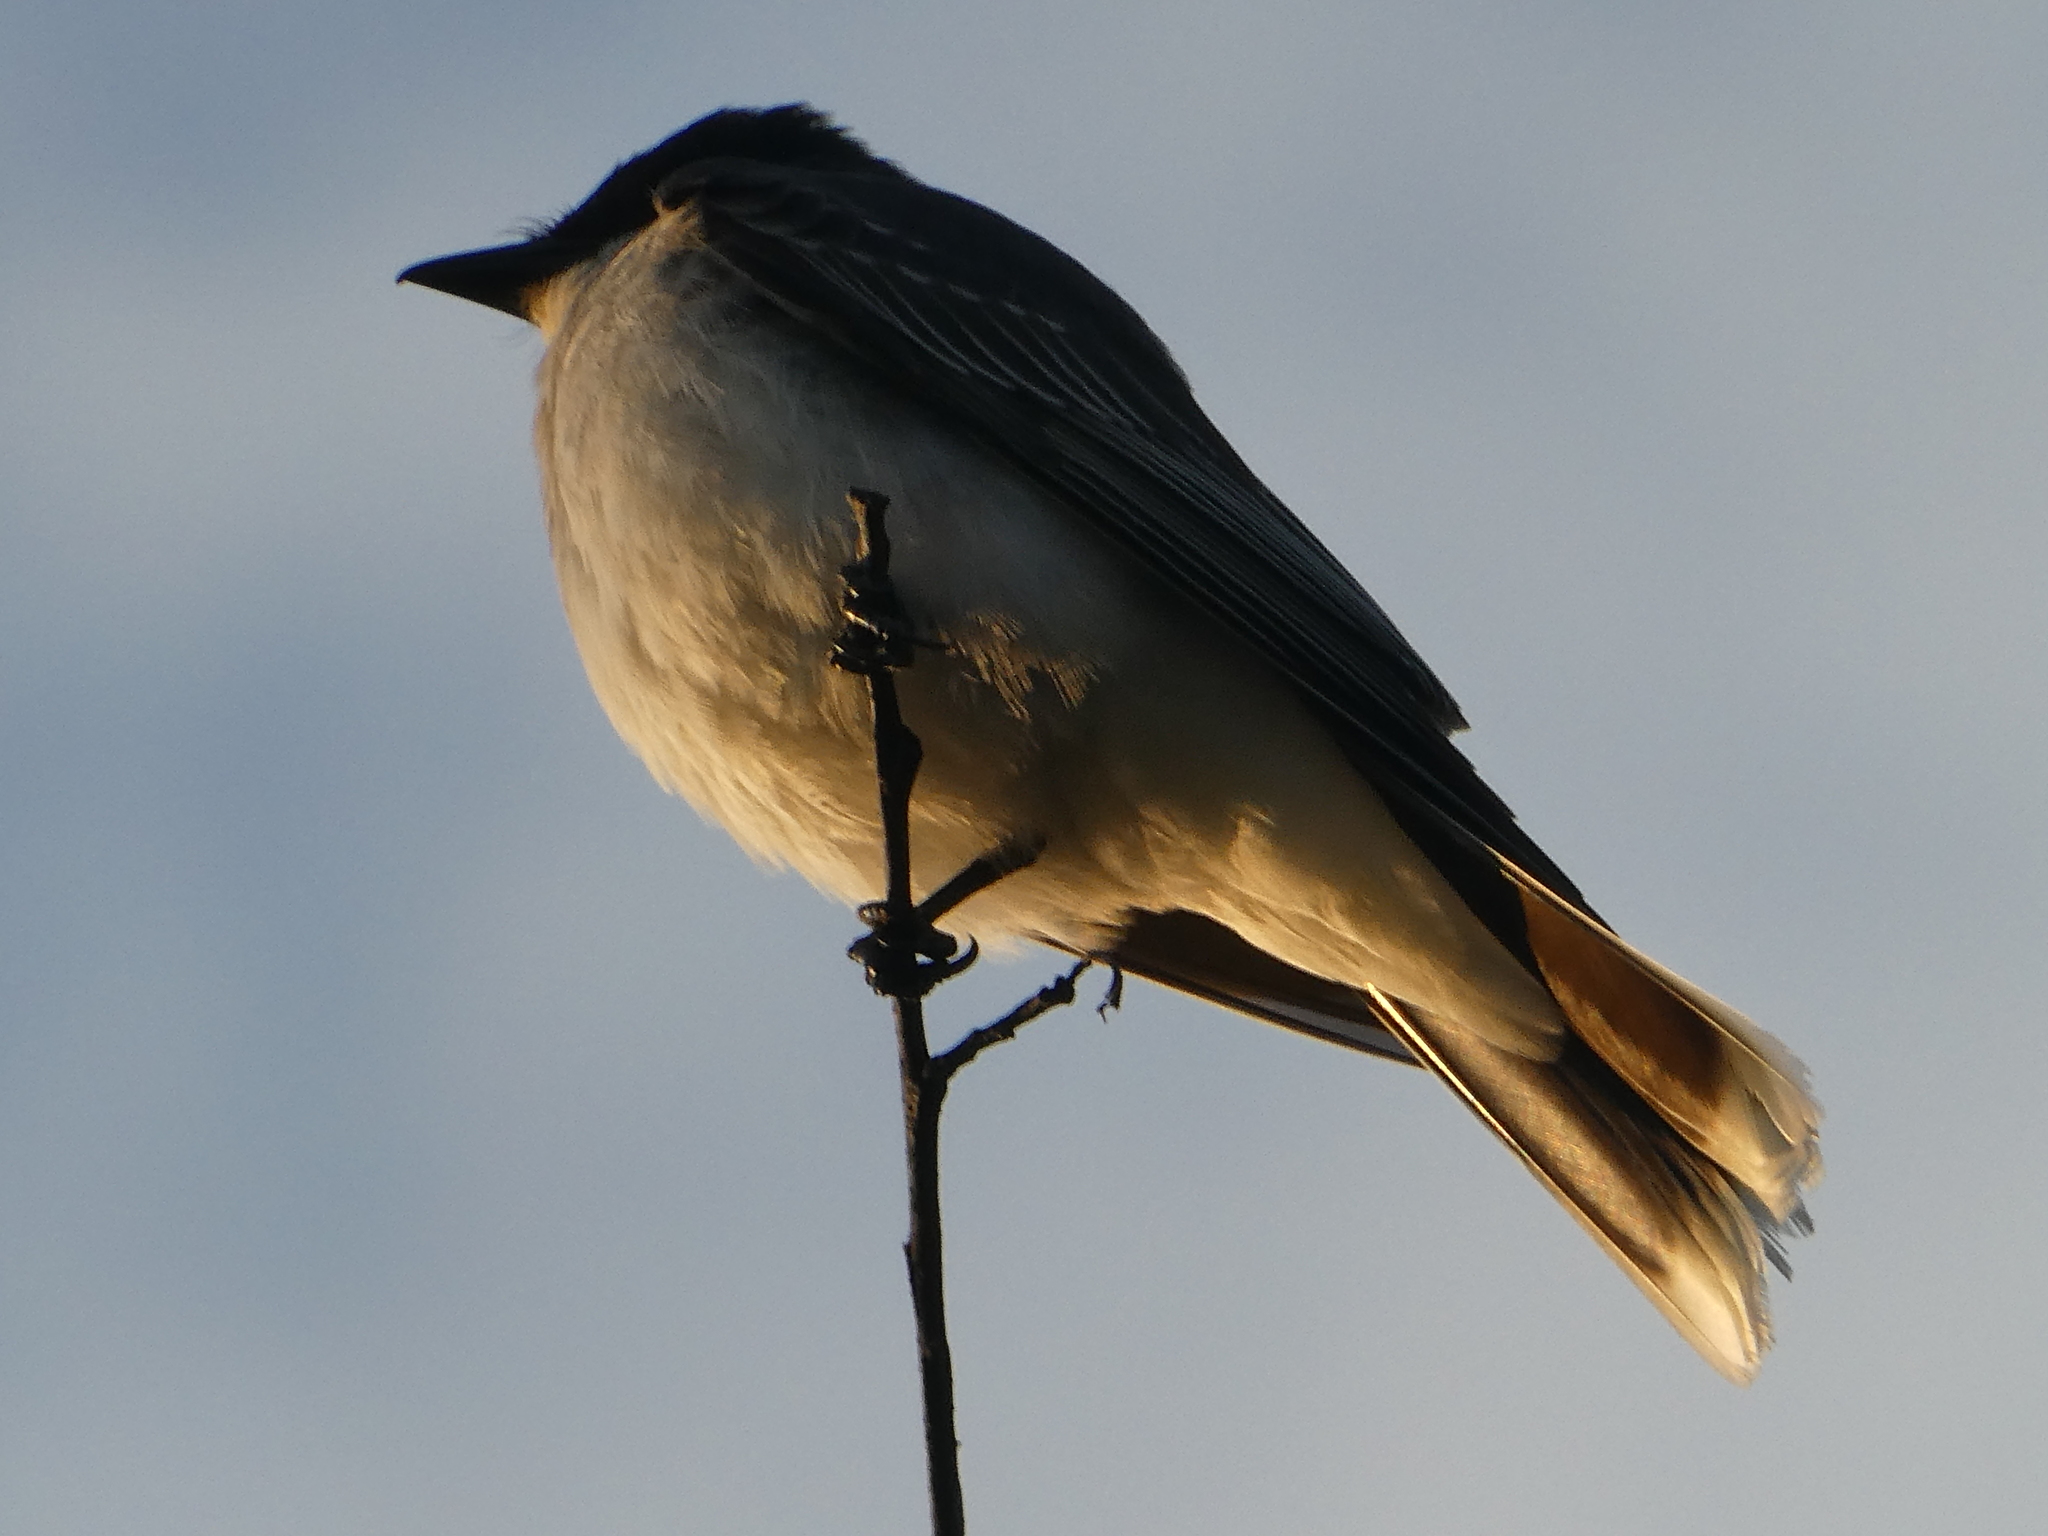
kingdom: Animalia
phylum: Chordata
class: Aves
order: Passeriformes
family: Tyrannidae
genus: Tyrannus
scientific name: Tyrannus tyrannus
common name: Eastern kingbird
